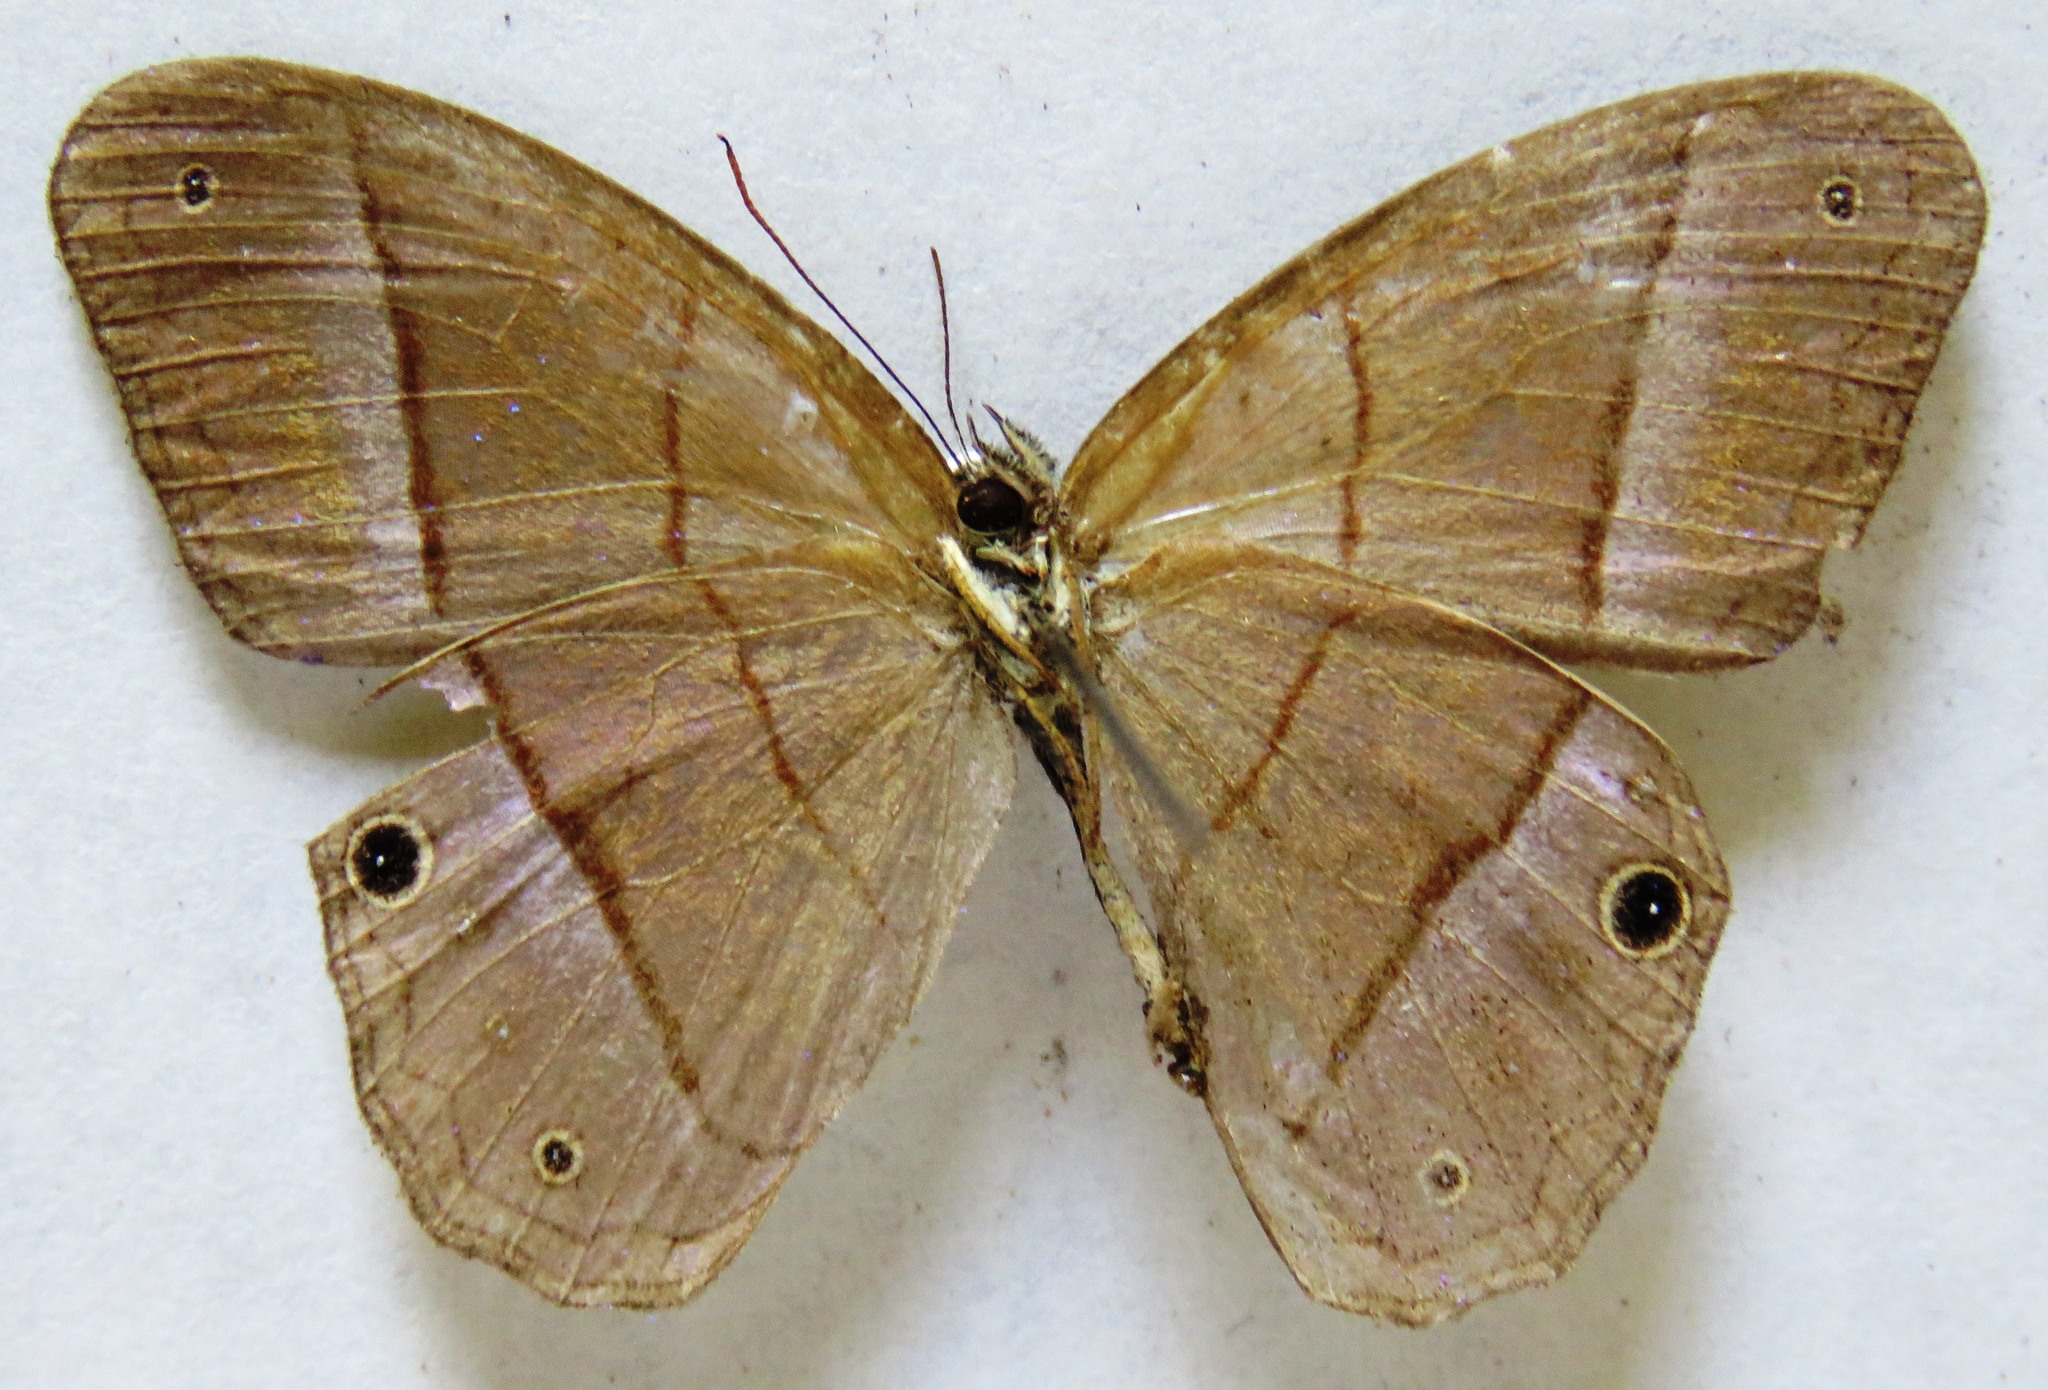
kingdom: Animalia
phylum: Arthropoda
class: Insecta
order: Lepidoptera
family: Nymphalidae
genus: Amiga
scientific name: Amiga sericeella
